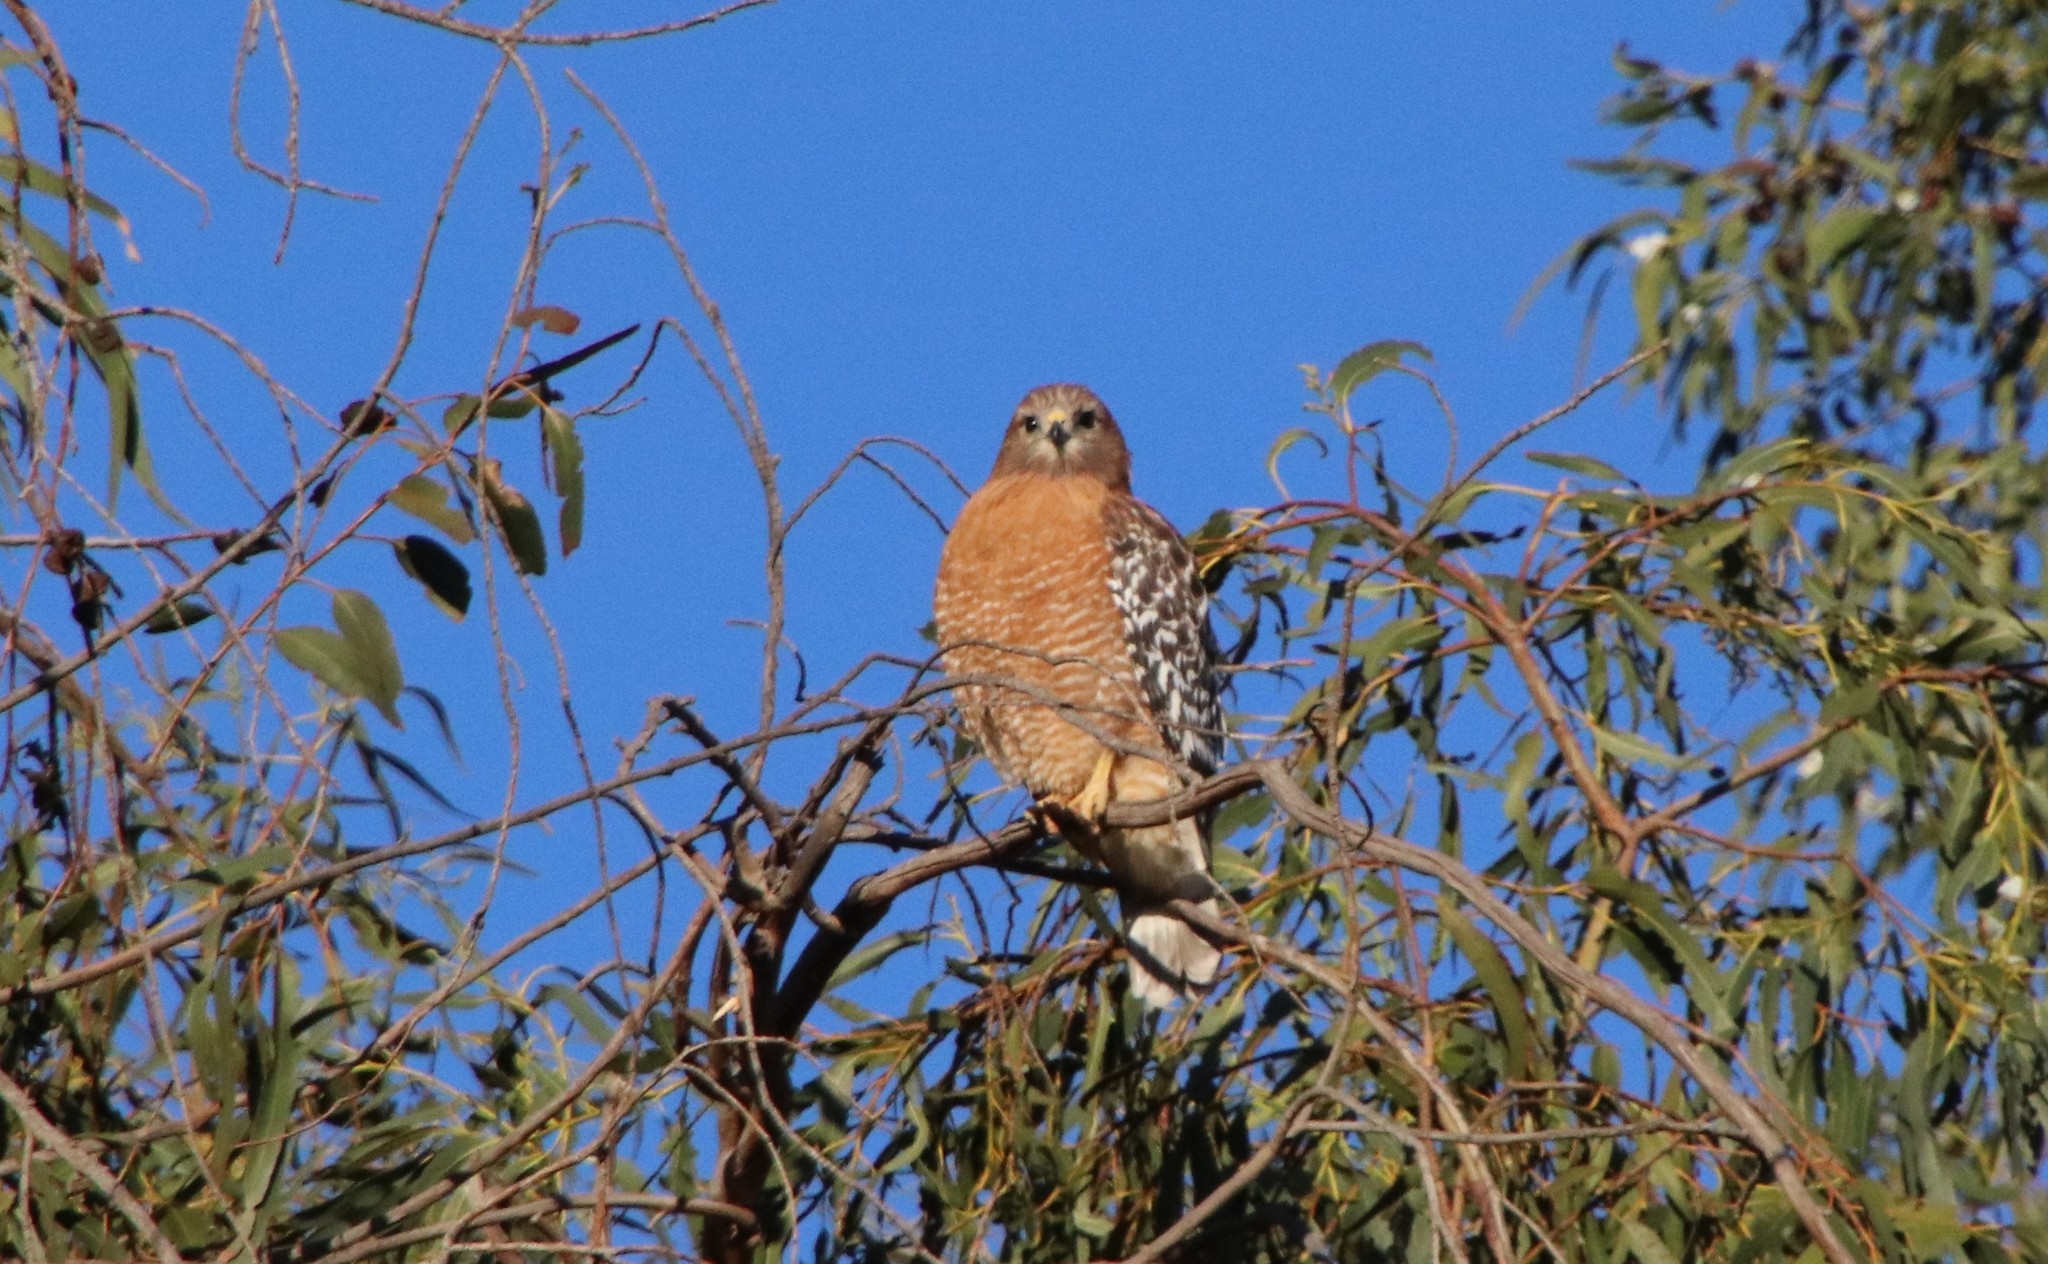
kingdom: Animalia
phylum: Chordata
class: Aves
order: Accipitriformes
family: Accipitridae
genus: Buteo
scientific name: Buteo lineatus
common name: Red-shouldered hawk
